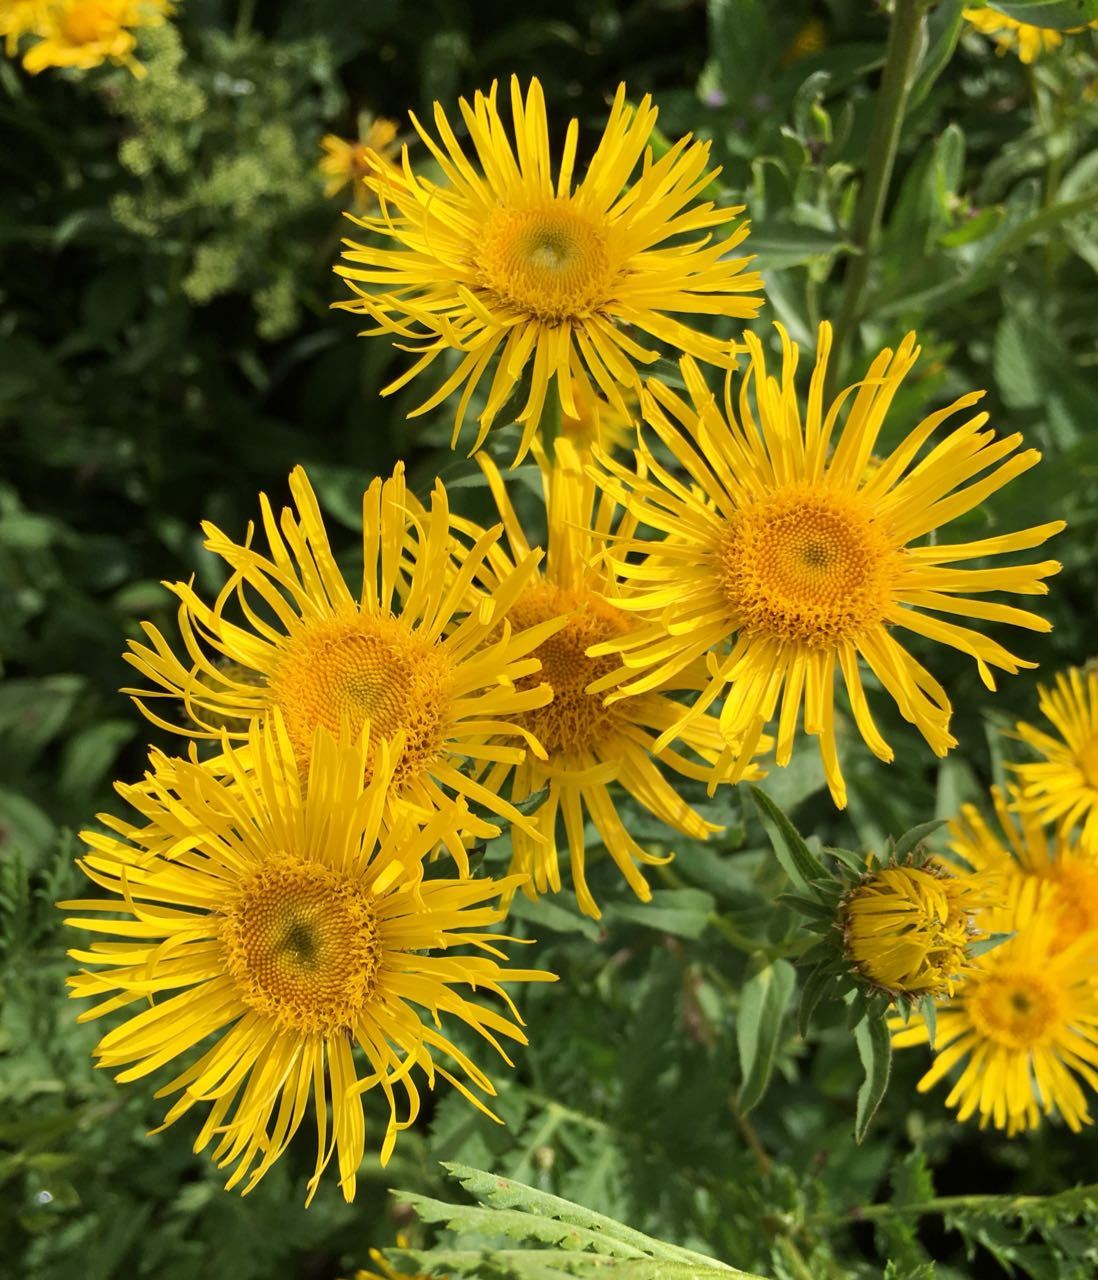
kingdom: Plantae
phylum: Tracheophyta
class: Magnoliopsida
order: Asterales
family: Asteraceae
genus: Pentanema
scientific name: Pentanema salicinum
